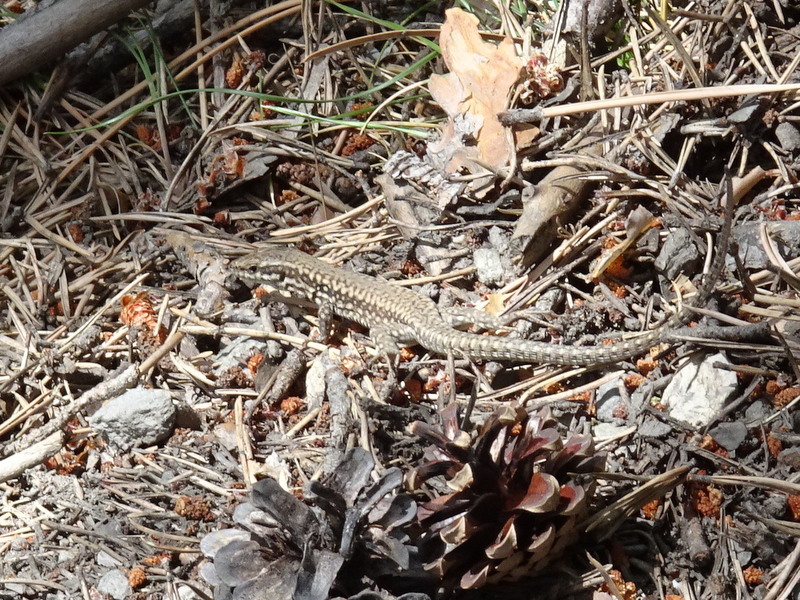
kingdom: Animalia
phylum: Chordata
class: Squamata
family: Lacertidae
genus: Podarcis
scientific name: Podarcis muralis
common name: Common wall lizard
